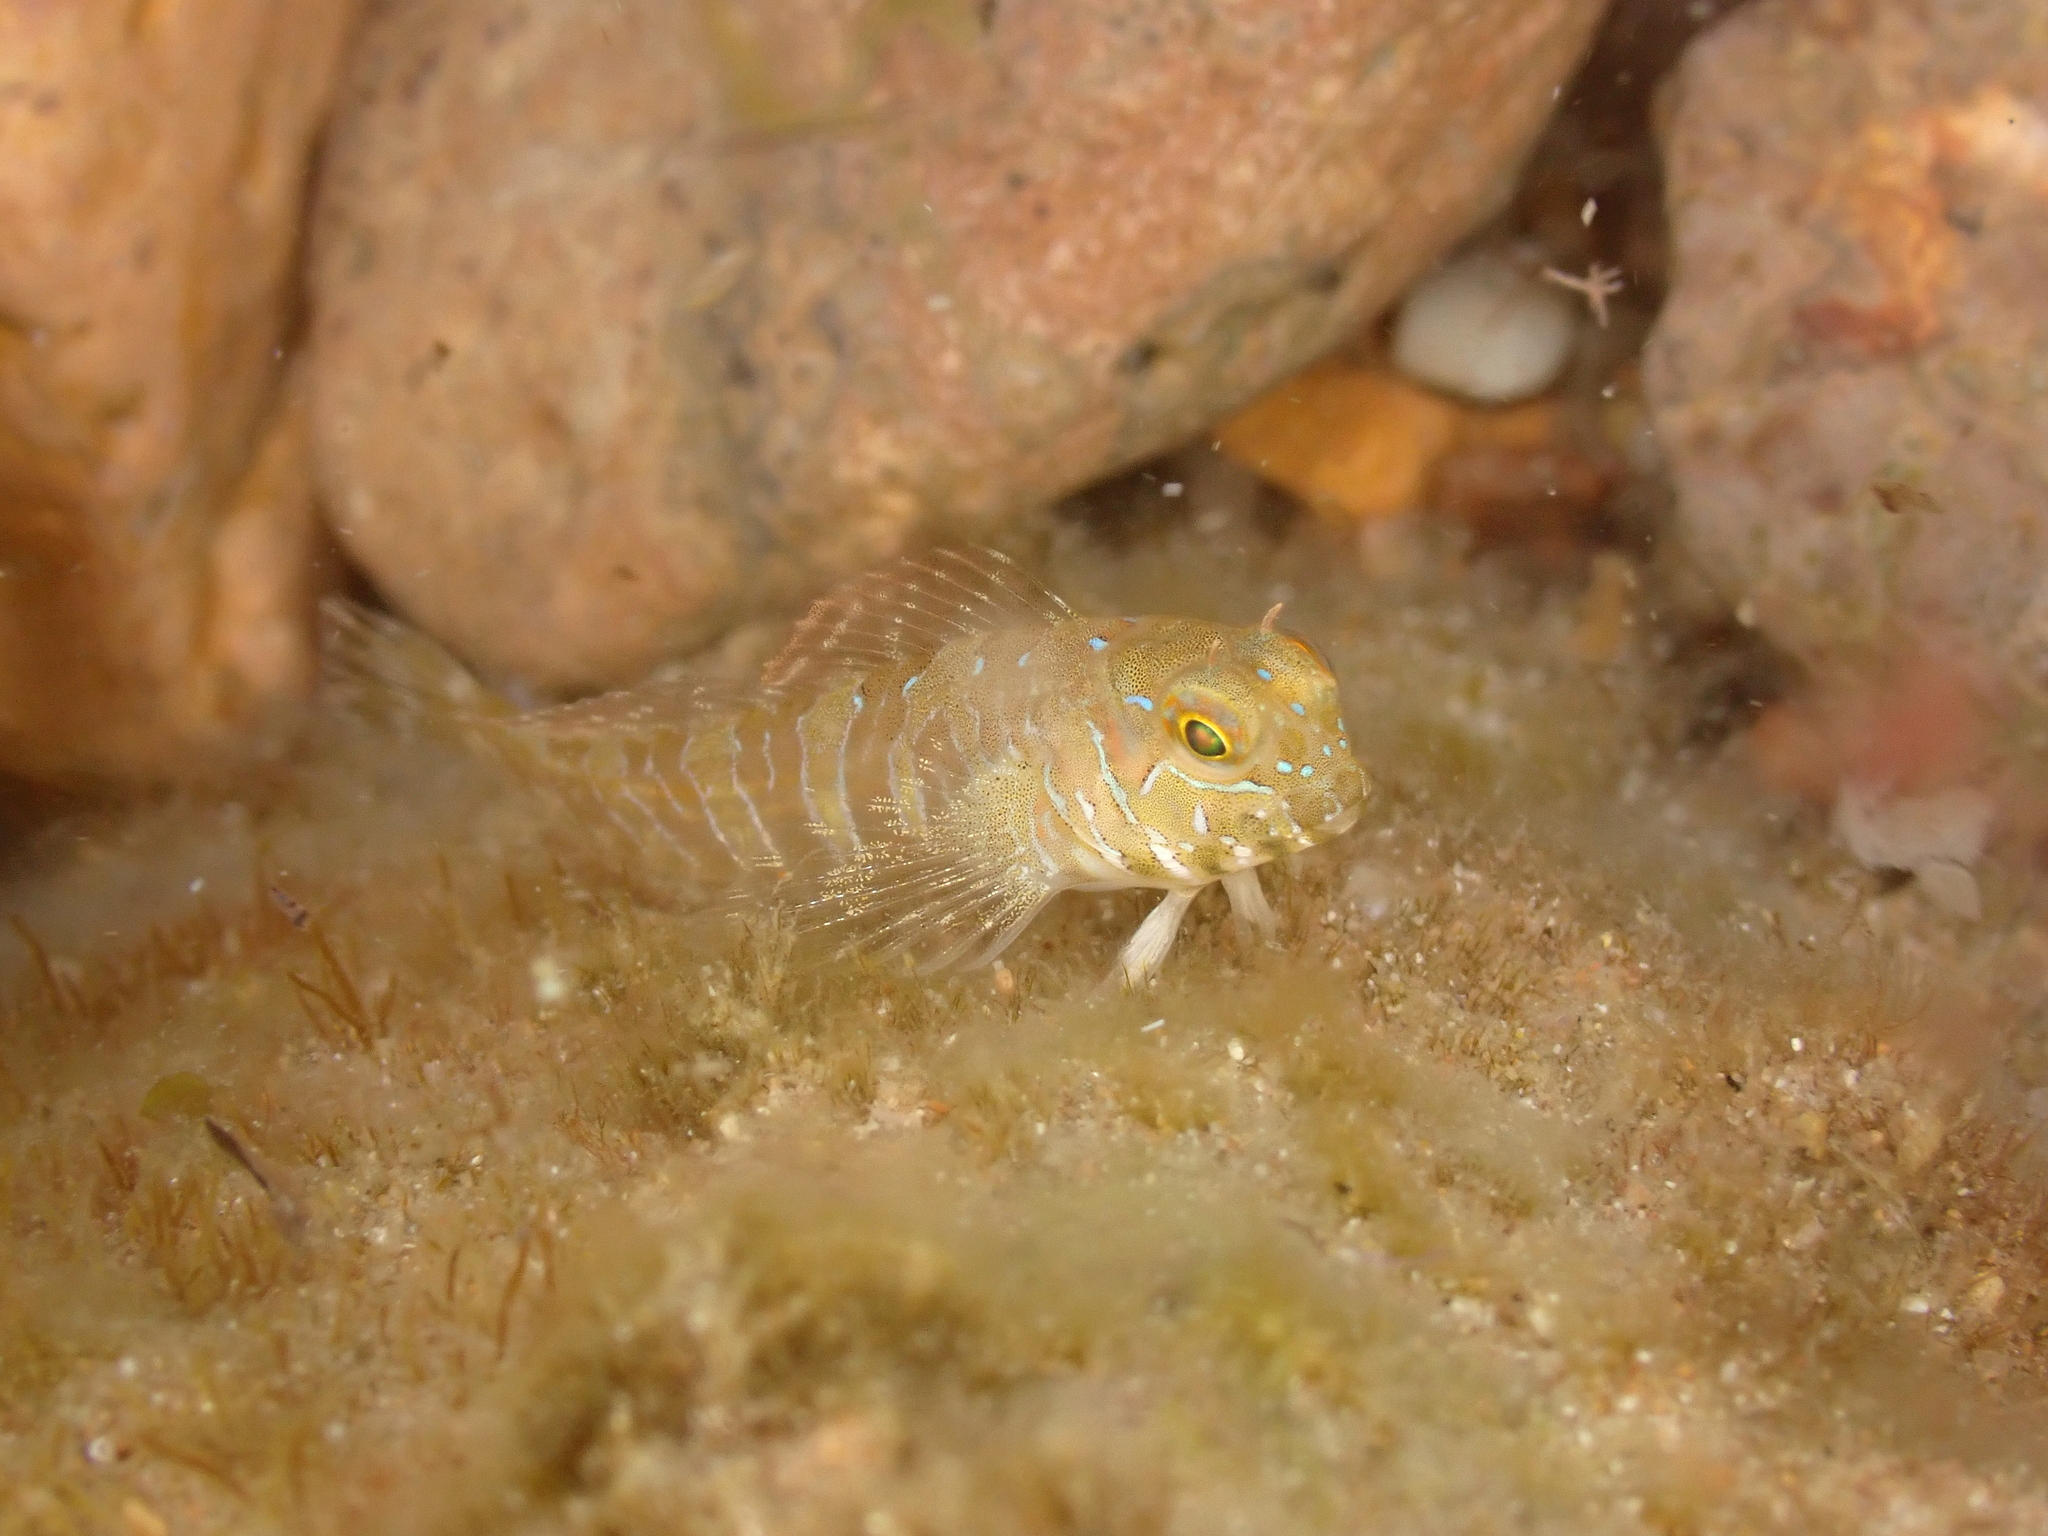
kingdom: Animalia
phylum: Chordata
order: Perciformes
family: Blenniidae
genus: Aidablennius
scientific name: Aidablennius sphynx
